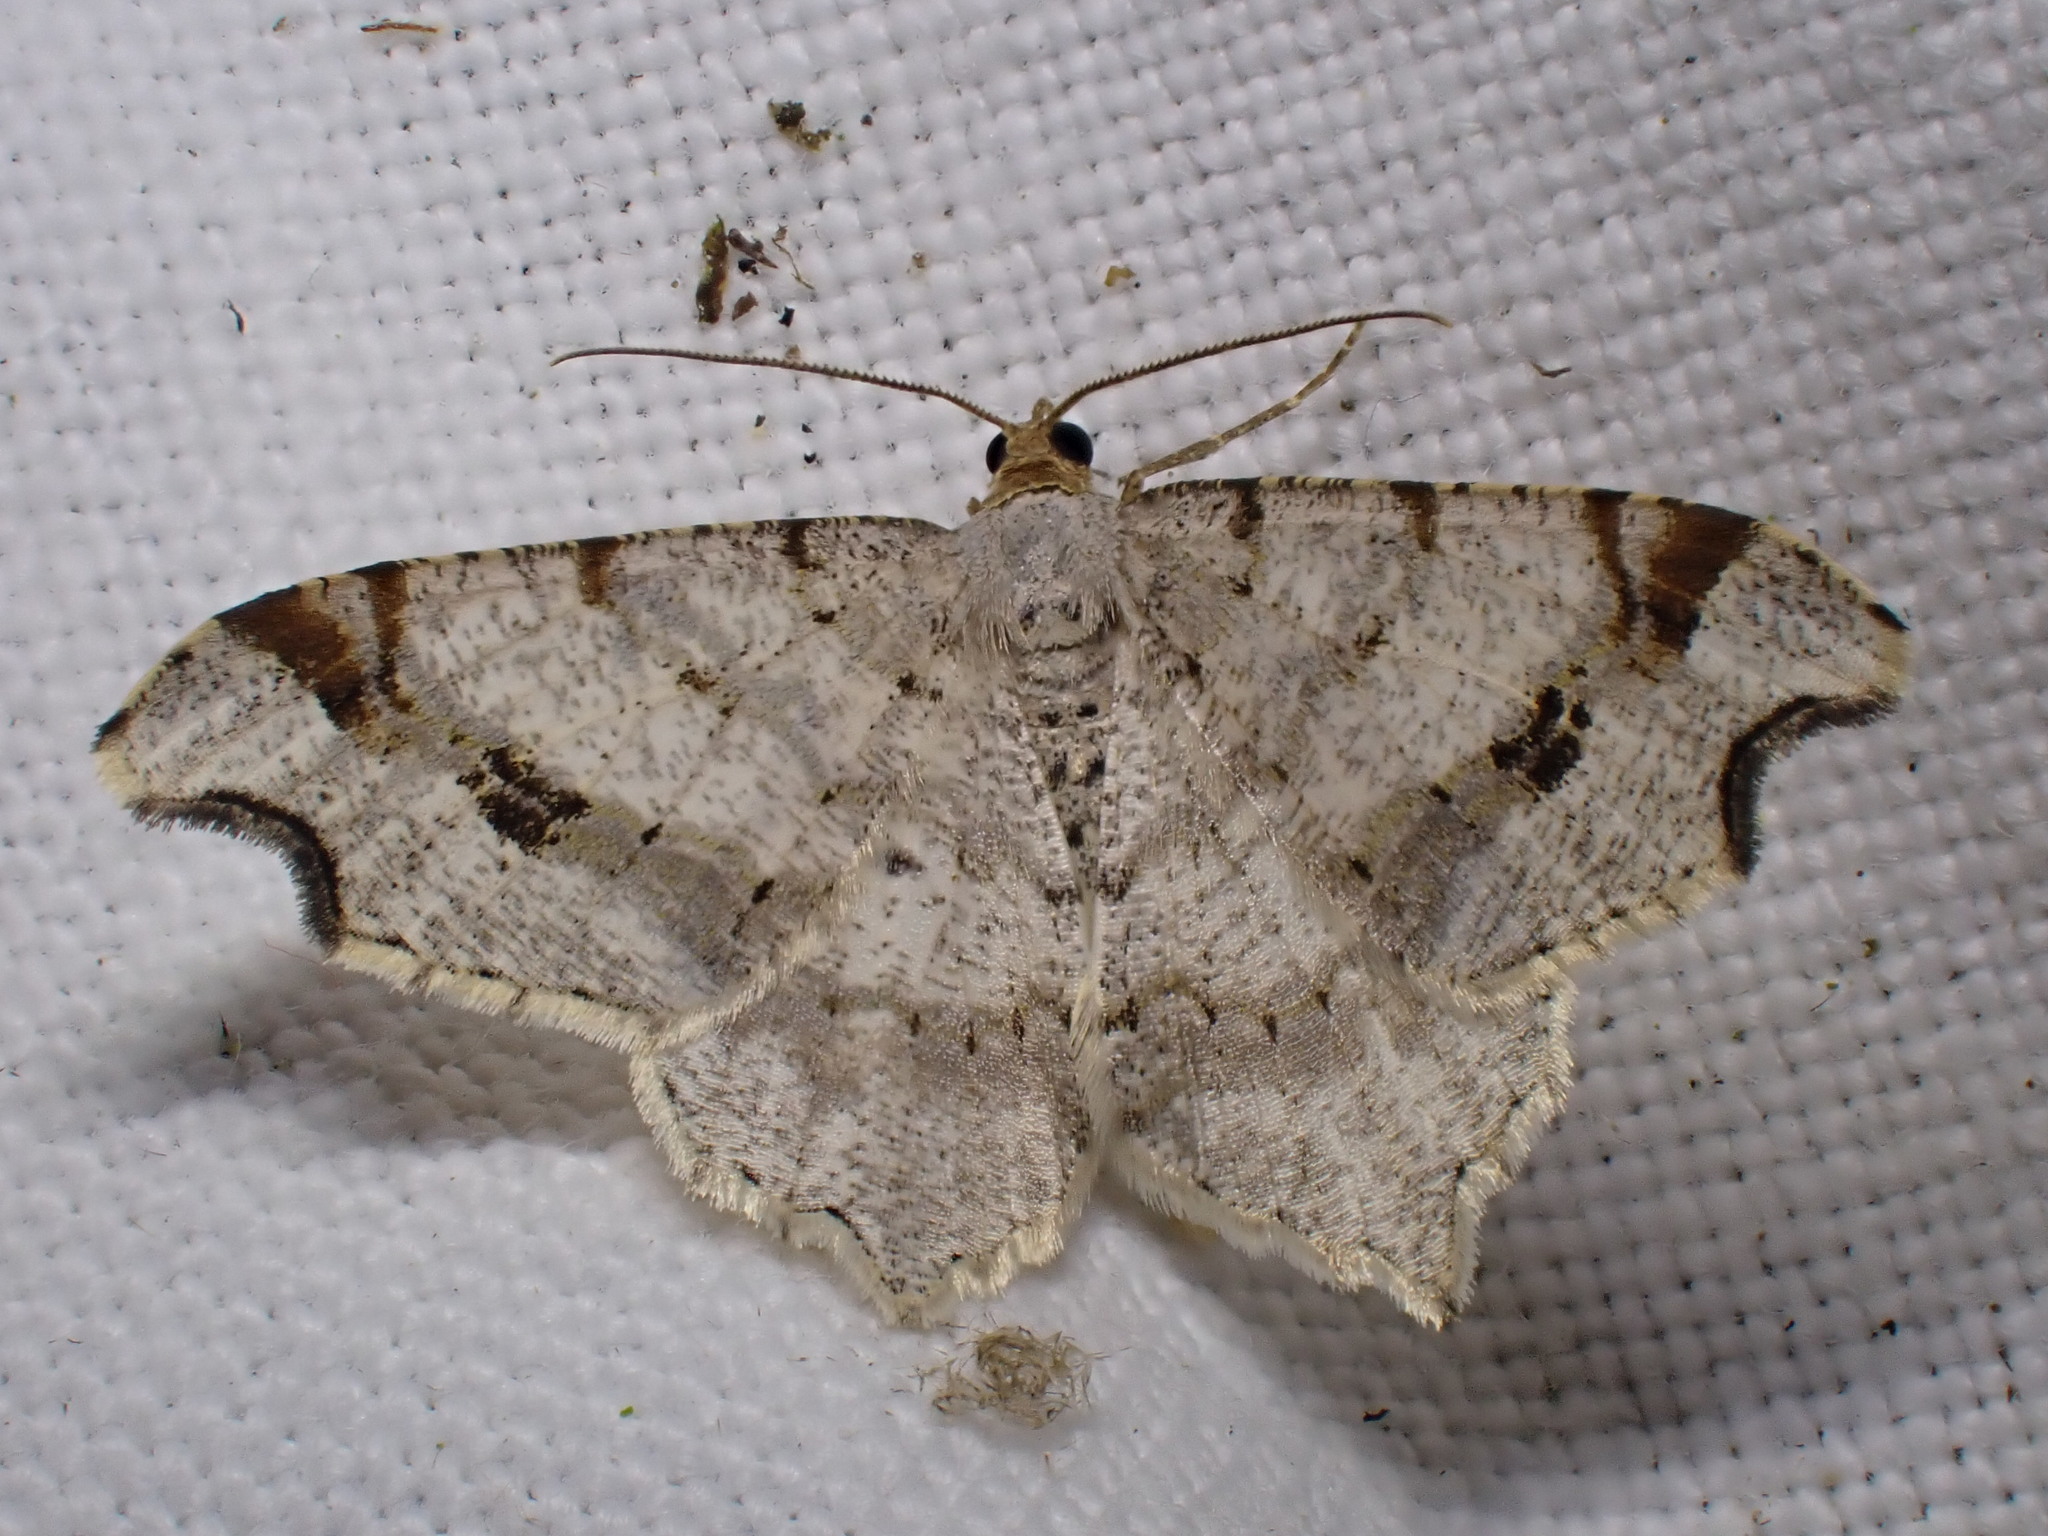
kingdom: Animalia
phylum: Arthropoda
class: Insecta
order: Lepidoptera
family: Geometridae
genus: Macaria
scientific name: Macaria alternata
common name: Sharp-angled peacock
